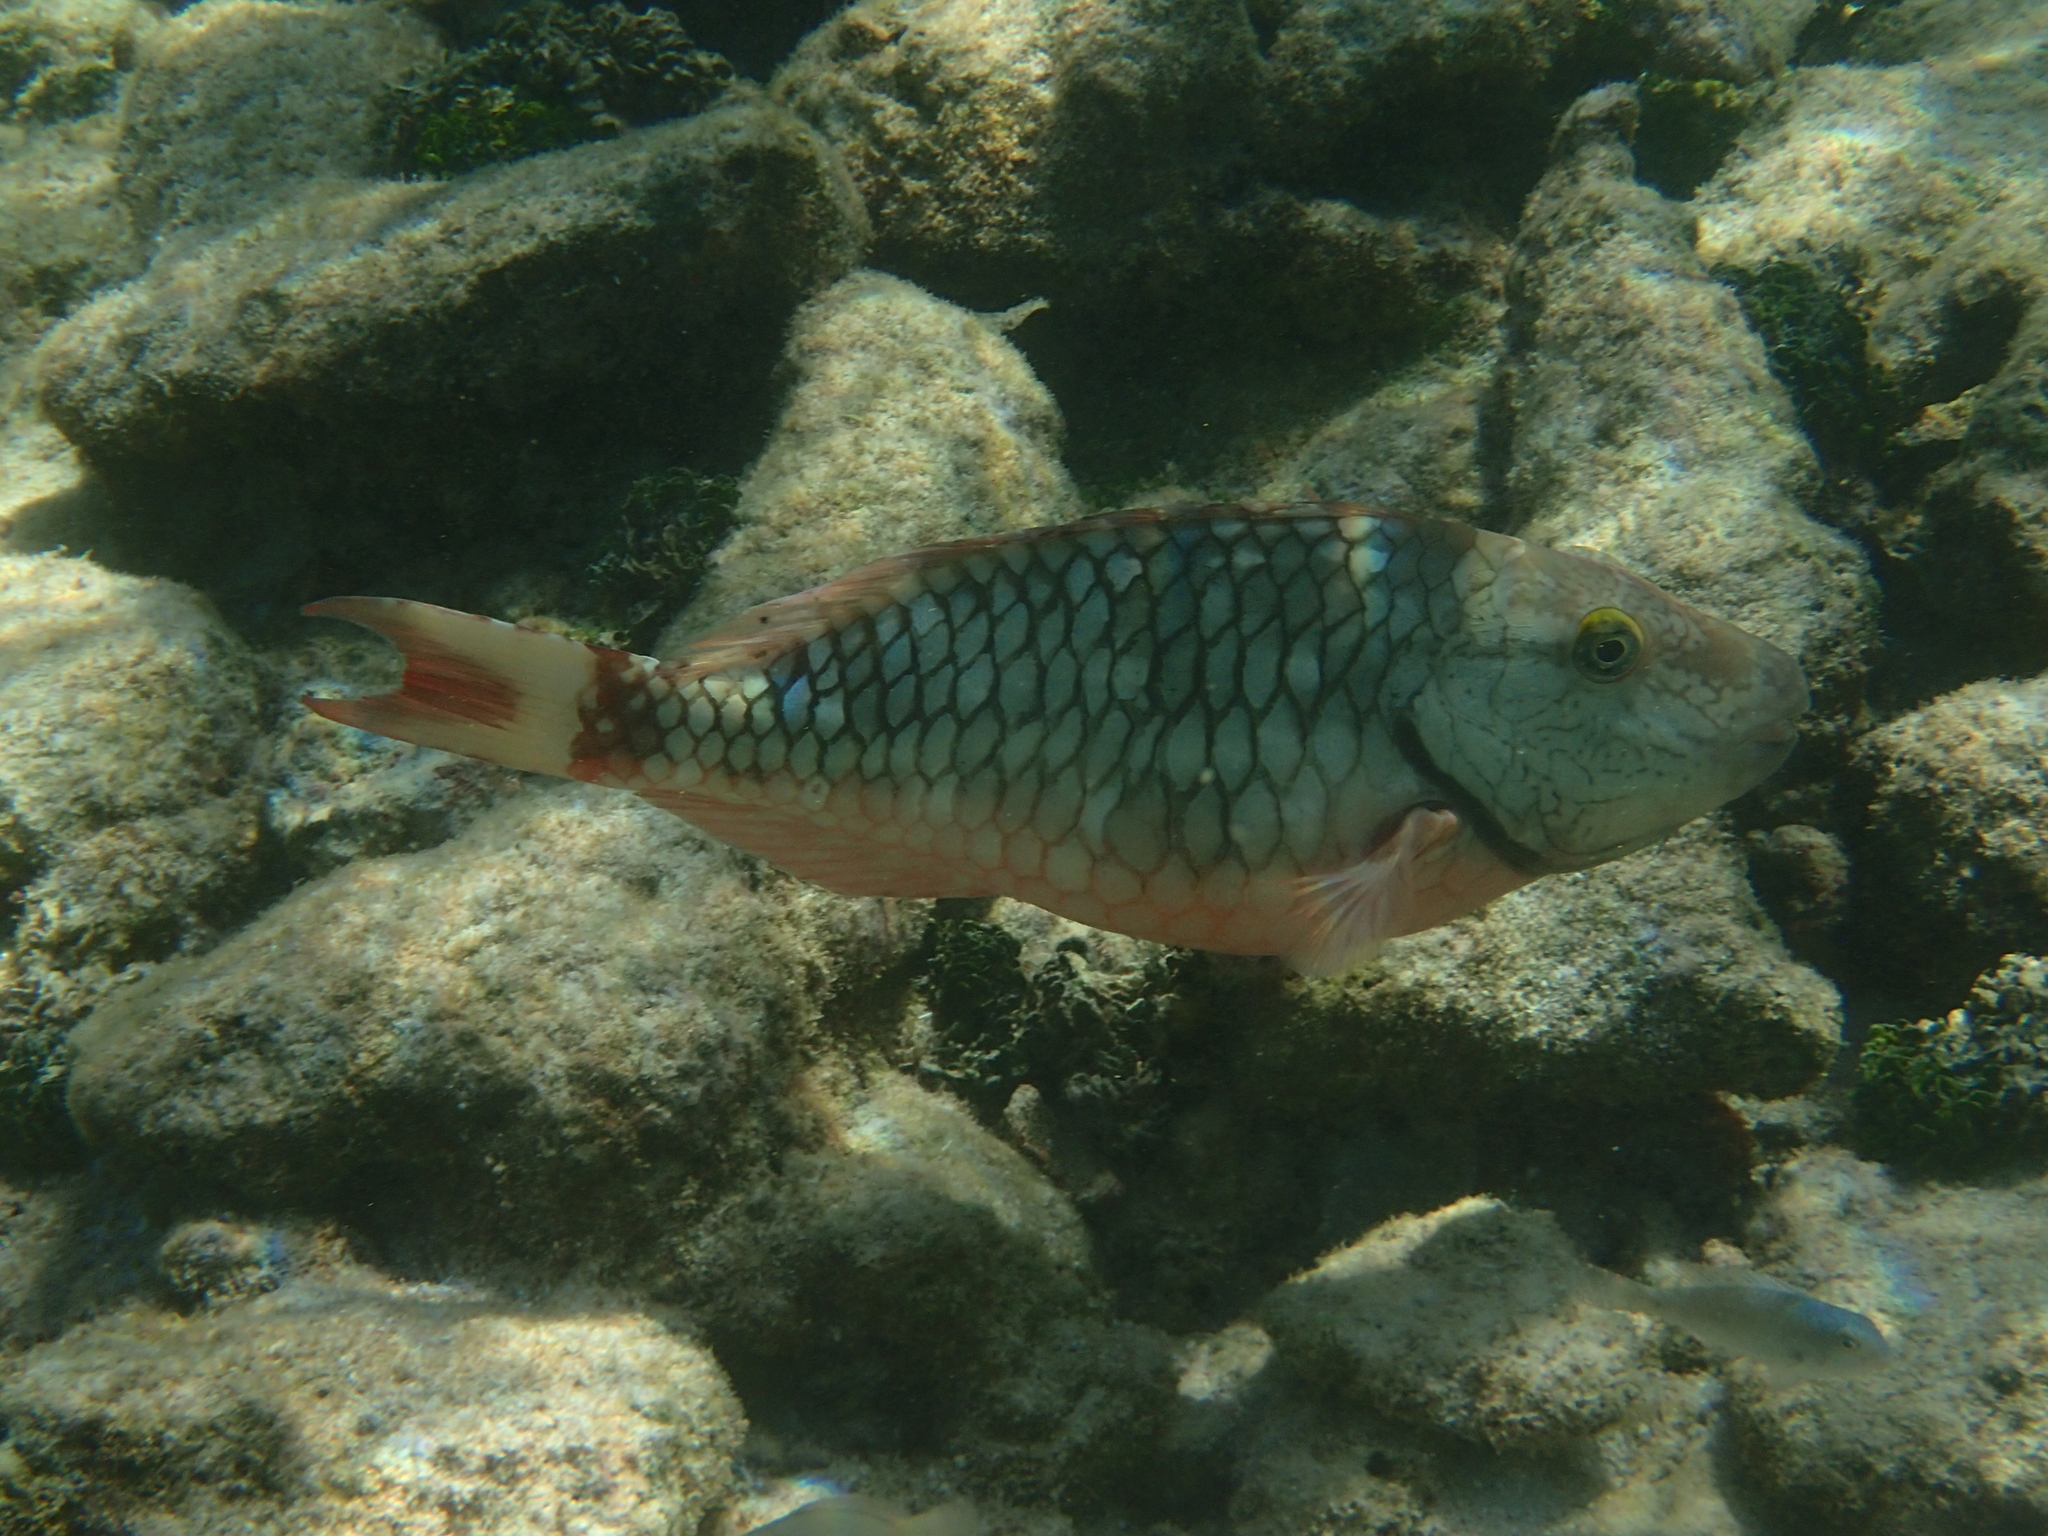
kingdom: Animalia
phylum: Chordata
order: Perciformes
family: Scaridae
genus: Sparisoma
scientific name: Sparisoma viride
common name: Stoplight parrotfish
